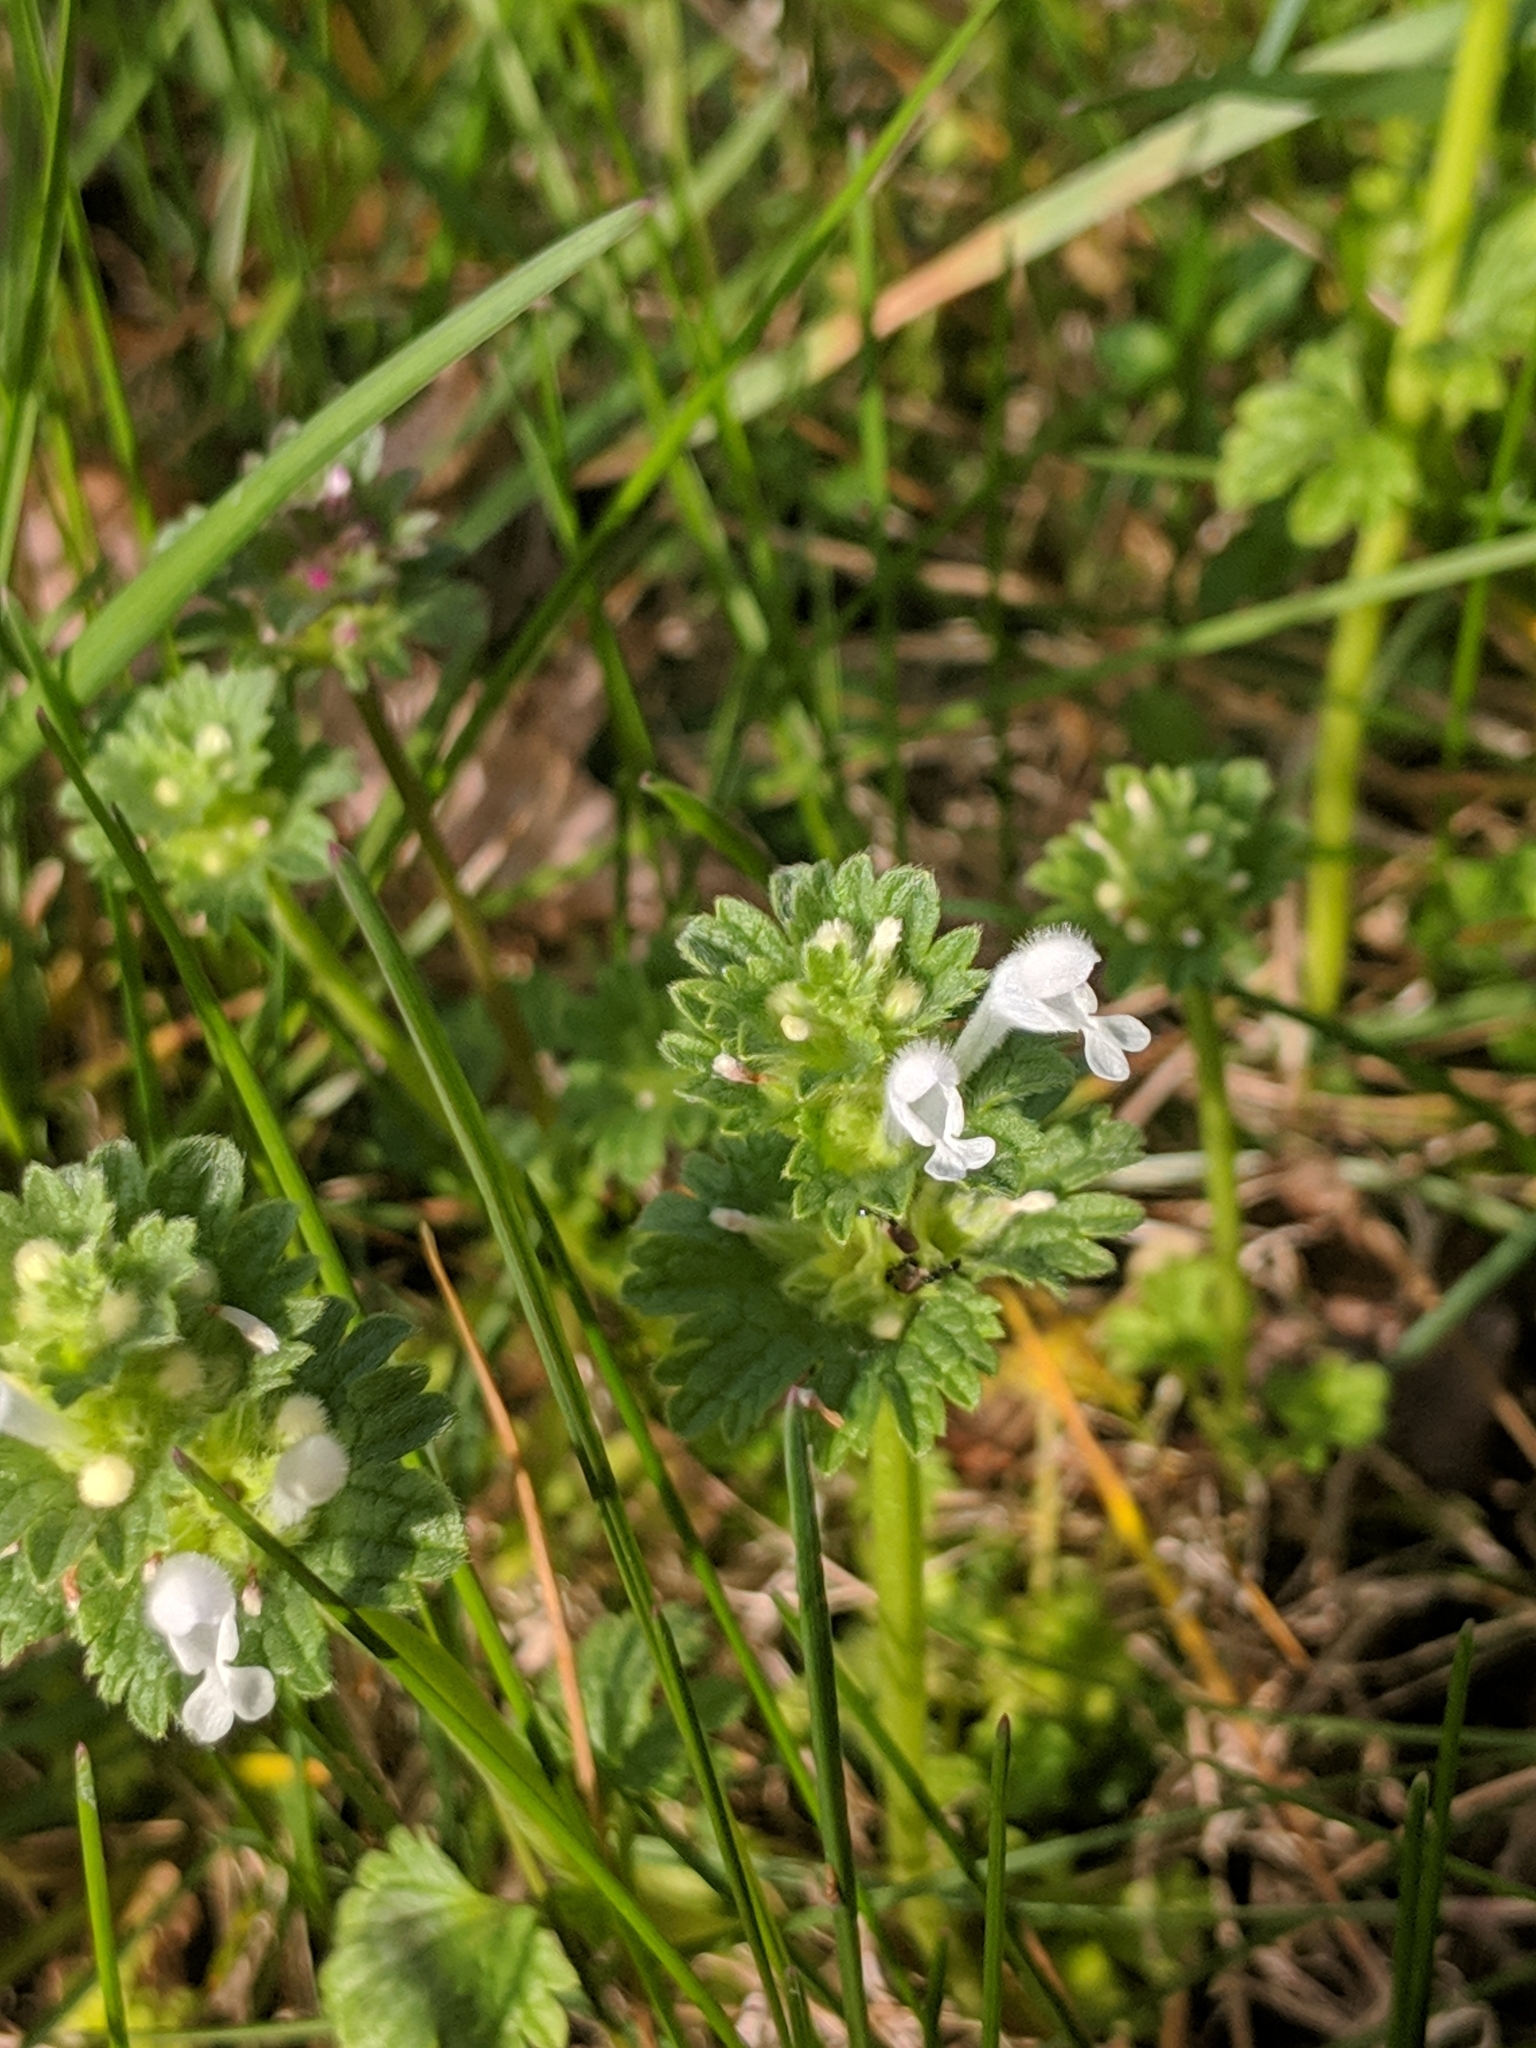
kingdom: Plantae
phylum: Tracheophyta
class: Magnoliopsida
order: Lamiales
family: Lamiaceae
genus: Lamium
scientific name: Lamium amplexicaule
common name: Henbit dead-nettle
